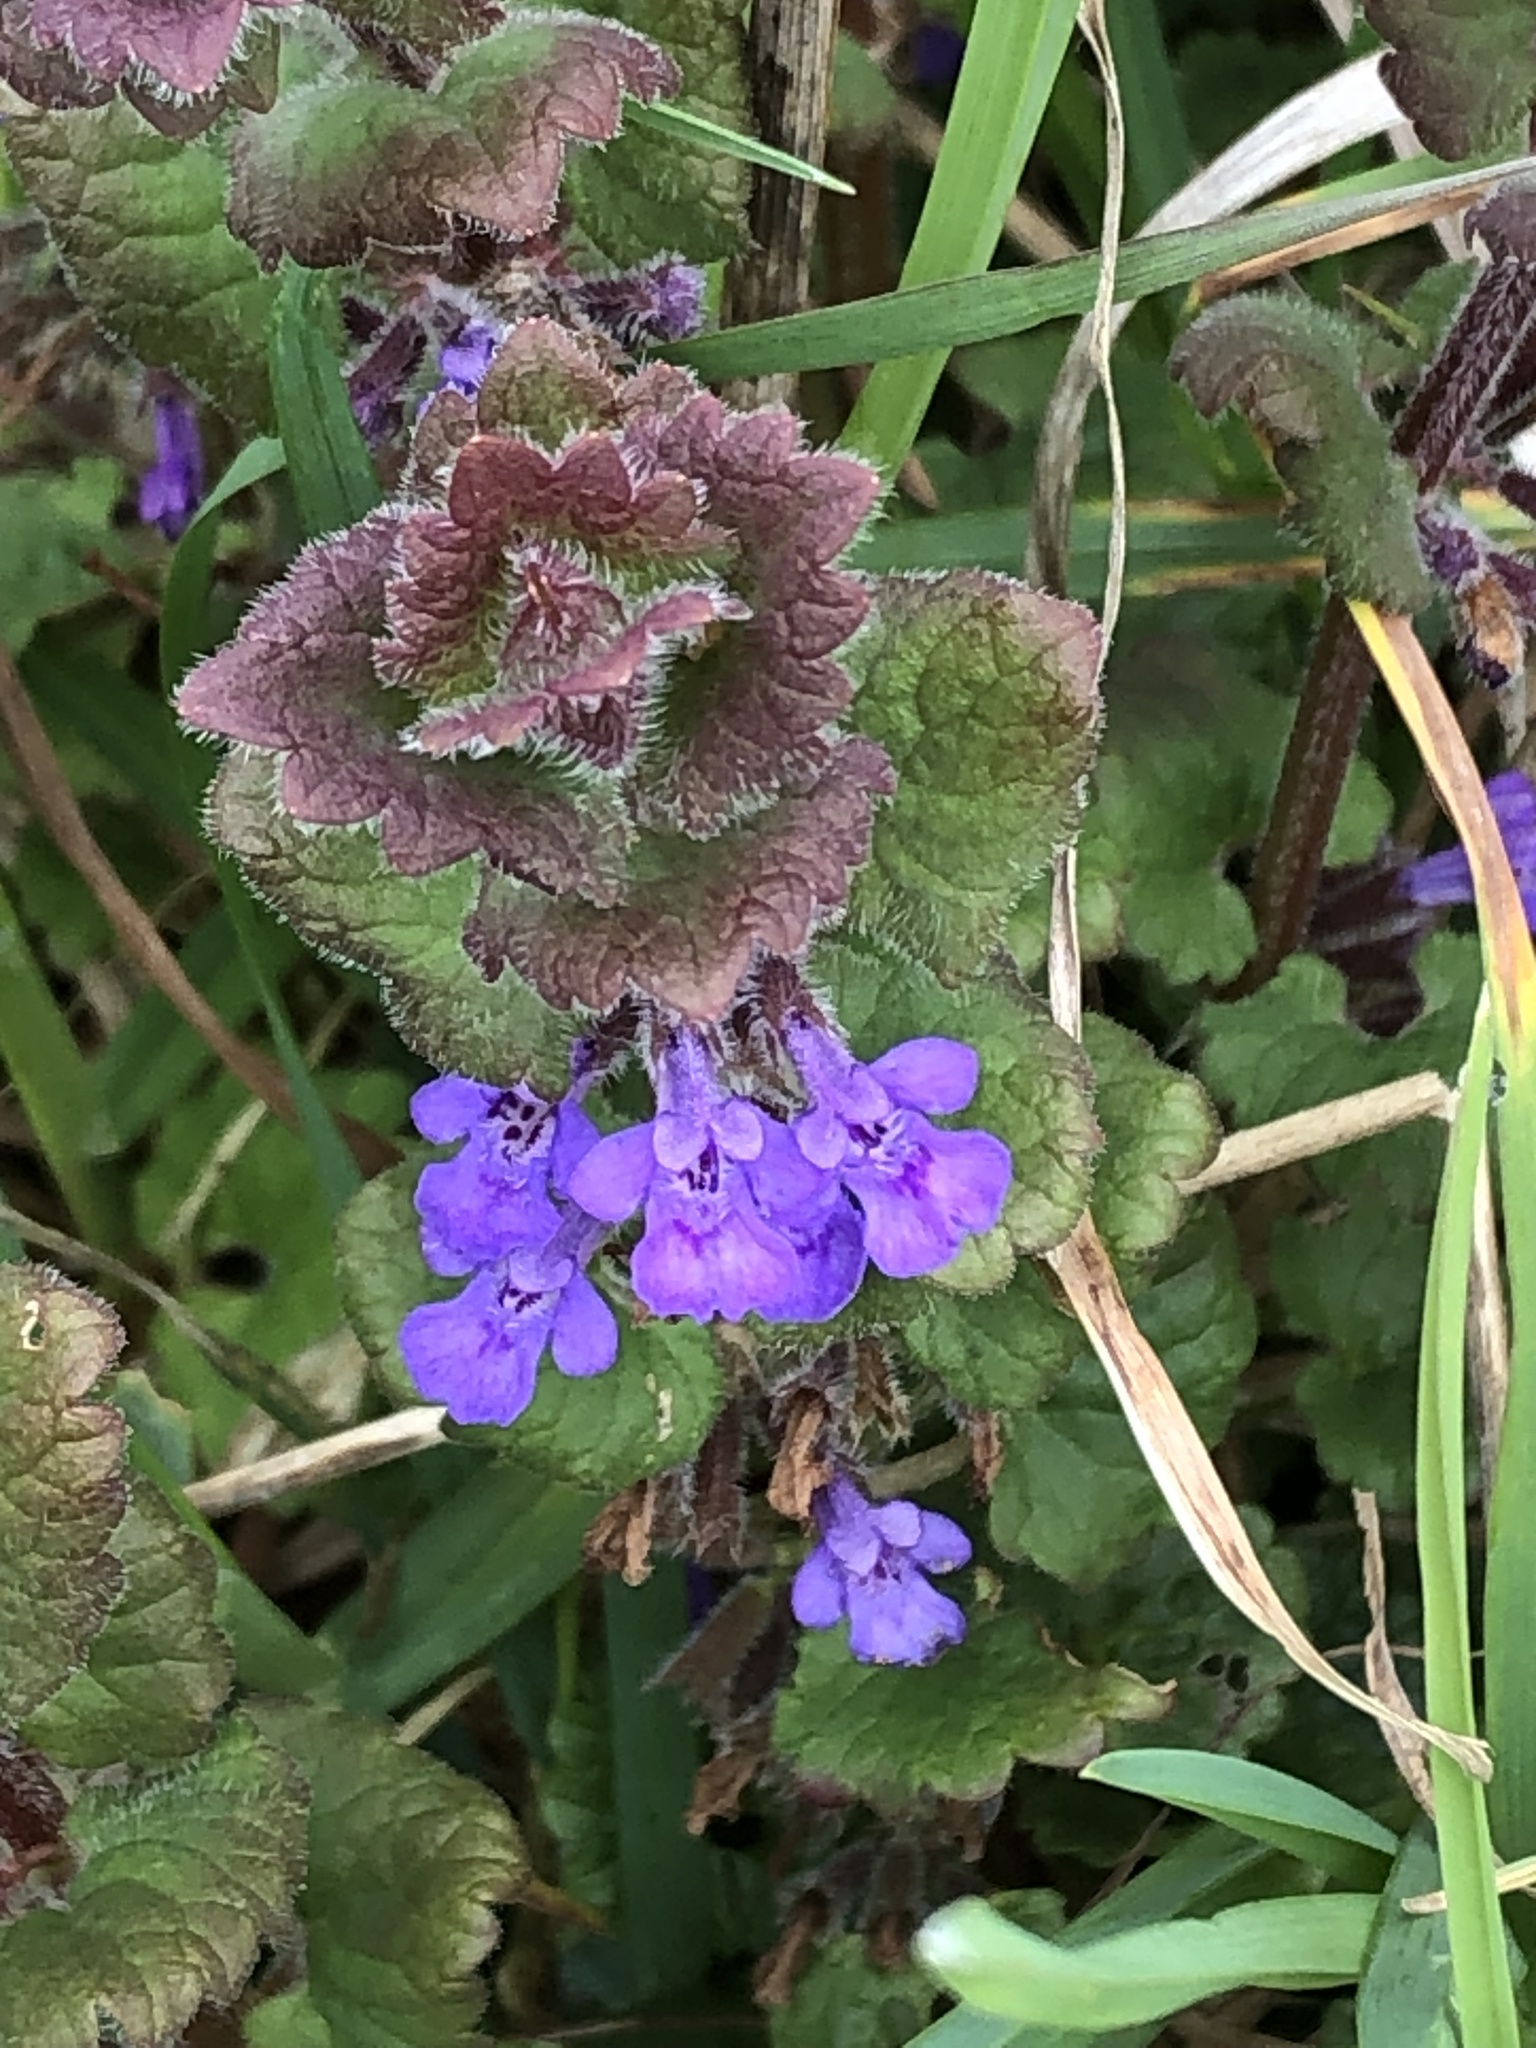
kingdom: Plantae
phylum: Tracheophyta
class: Magnoliopsida
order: Lamiales
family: Lamiaceae
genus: Glechoma
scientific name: Glechoma hederacea
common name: Ground ivy
